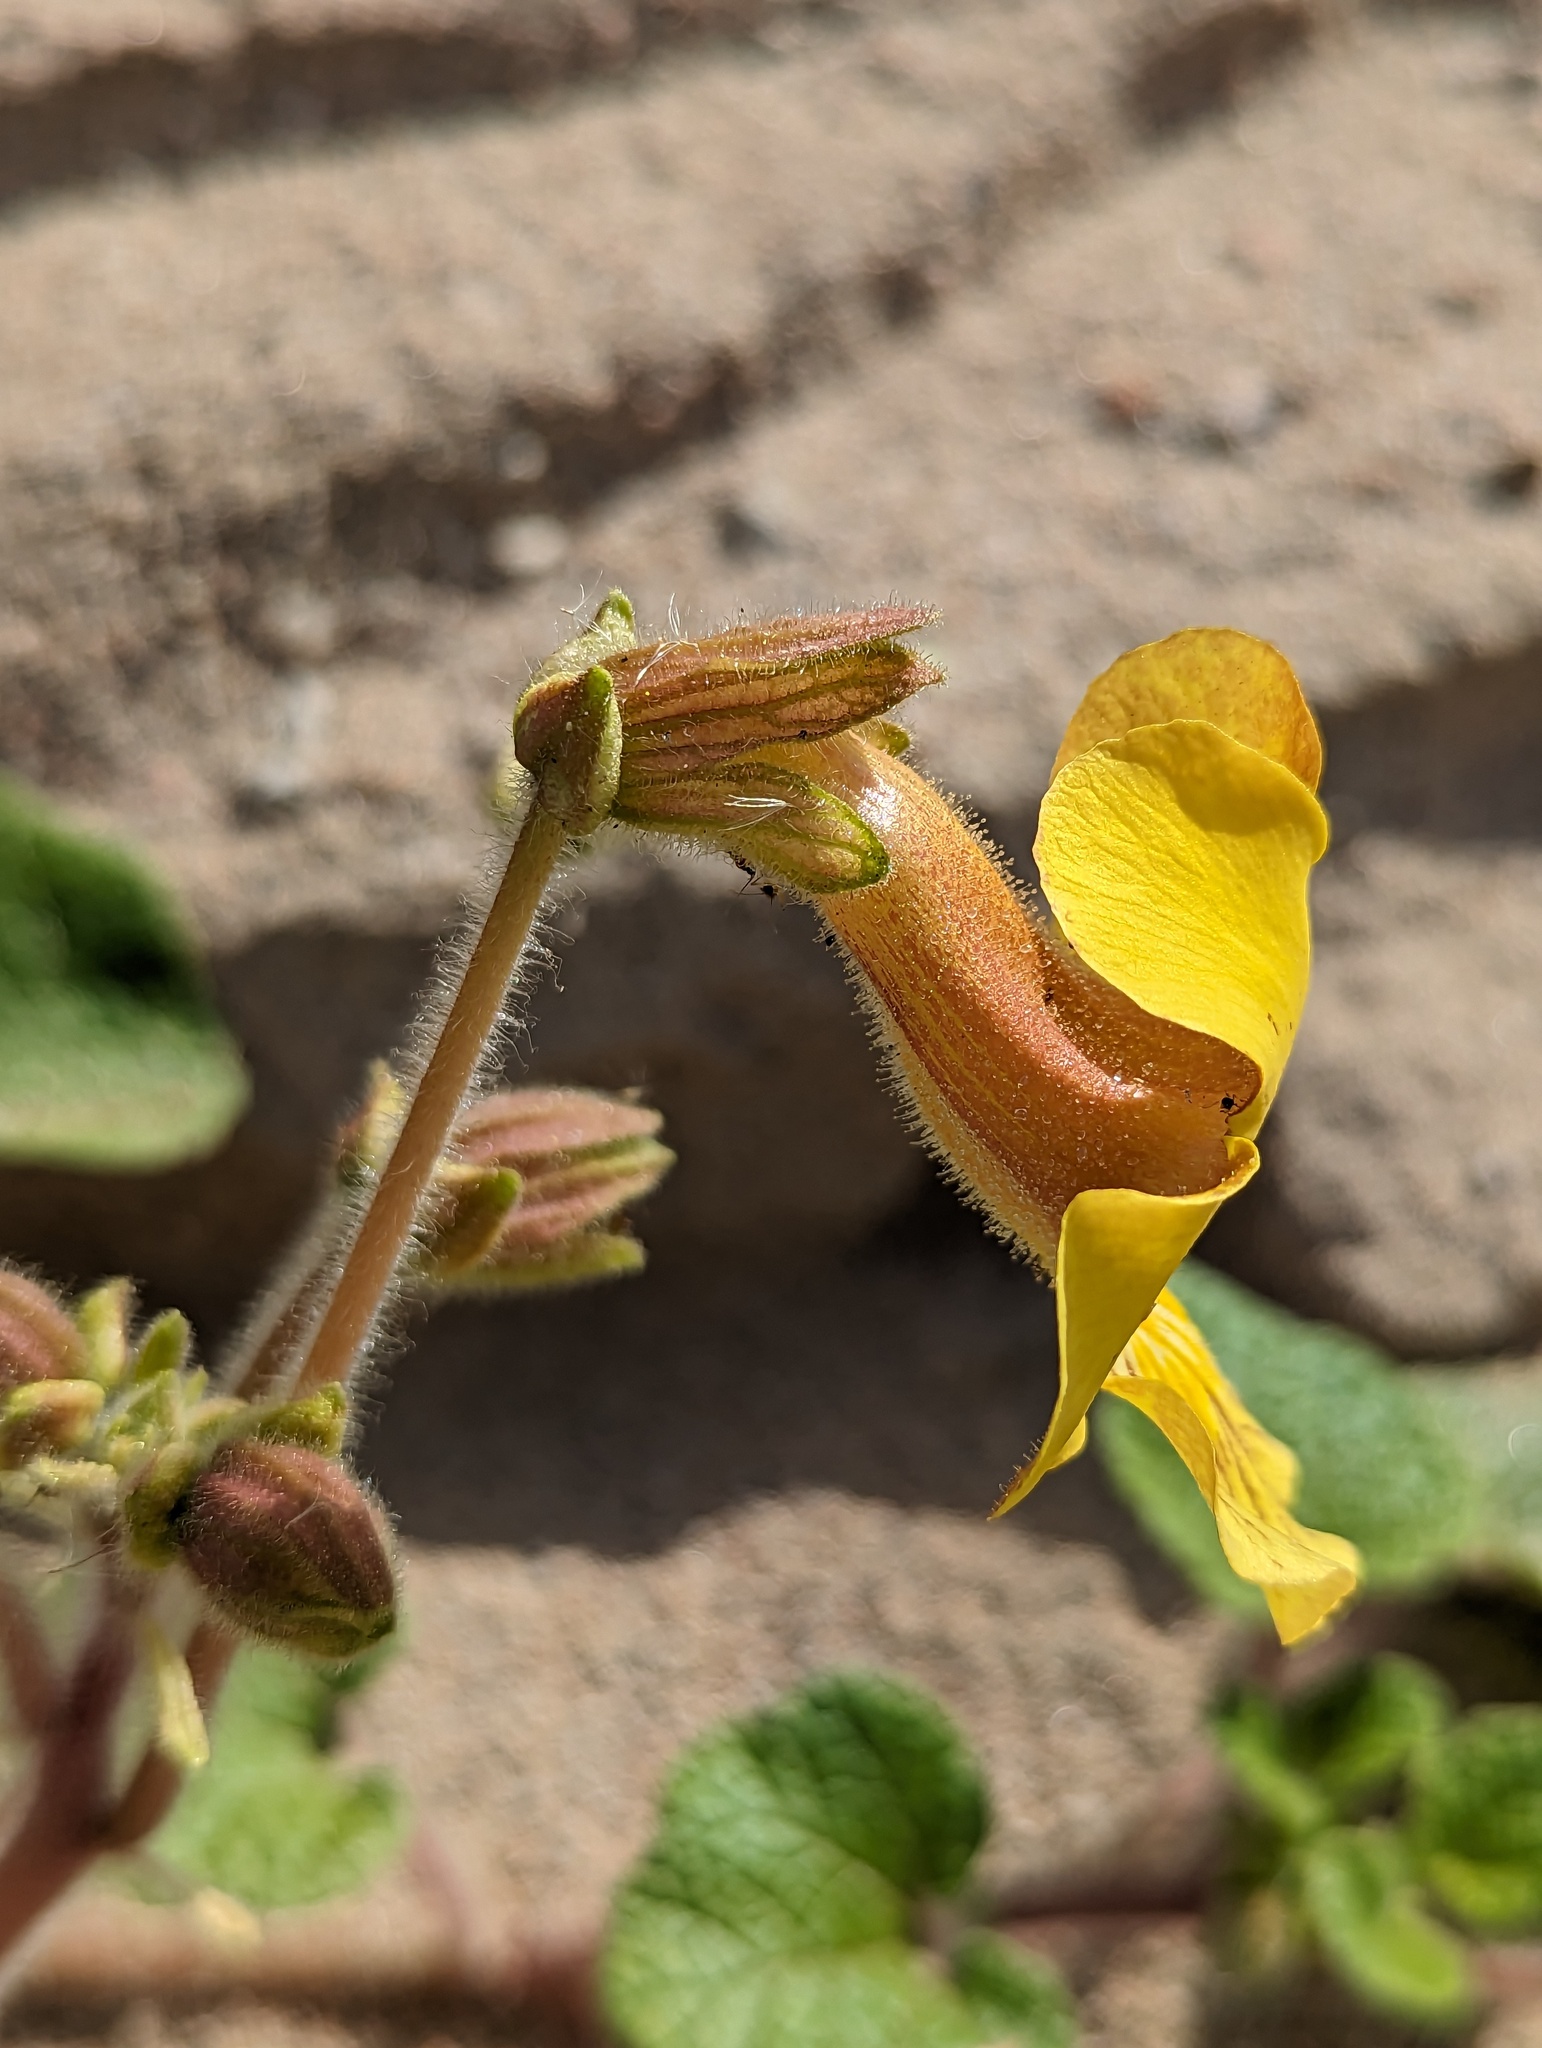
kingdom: Plantae
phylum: Tracheophyta
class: Magnoliopsida
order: Lamiales
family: Martyniaceae
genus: Proboscidea
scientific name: Proboscidea althaeifolia
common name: Desert unicorn-plant
